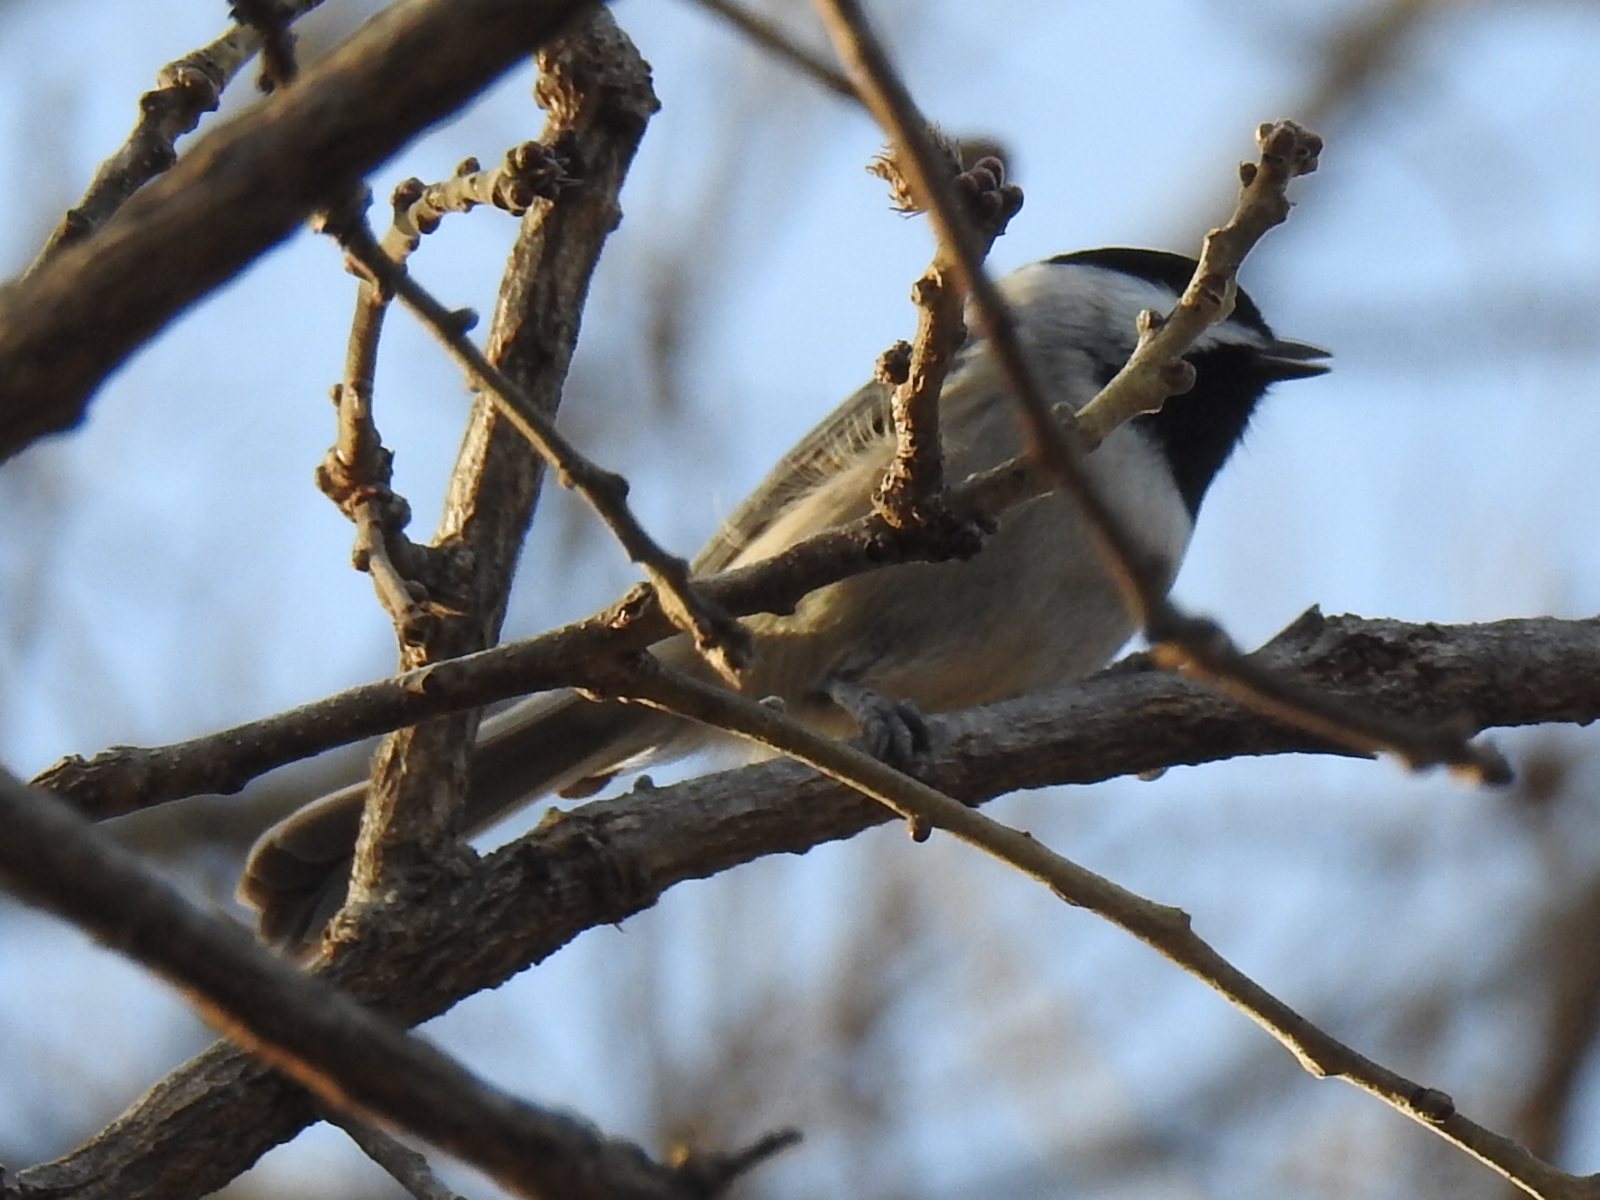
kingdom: Animalia
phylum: Chordata
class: Aves
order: Passeriformes
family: Paridae
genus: Poecile
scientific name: Poecile carolinensis
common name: Carolina chickadee
